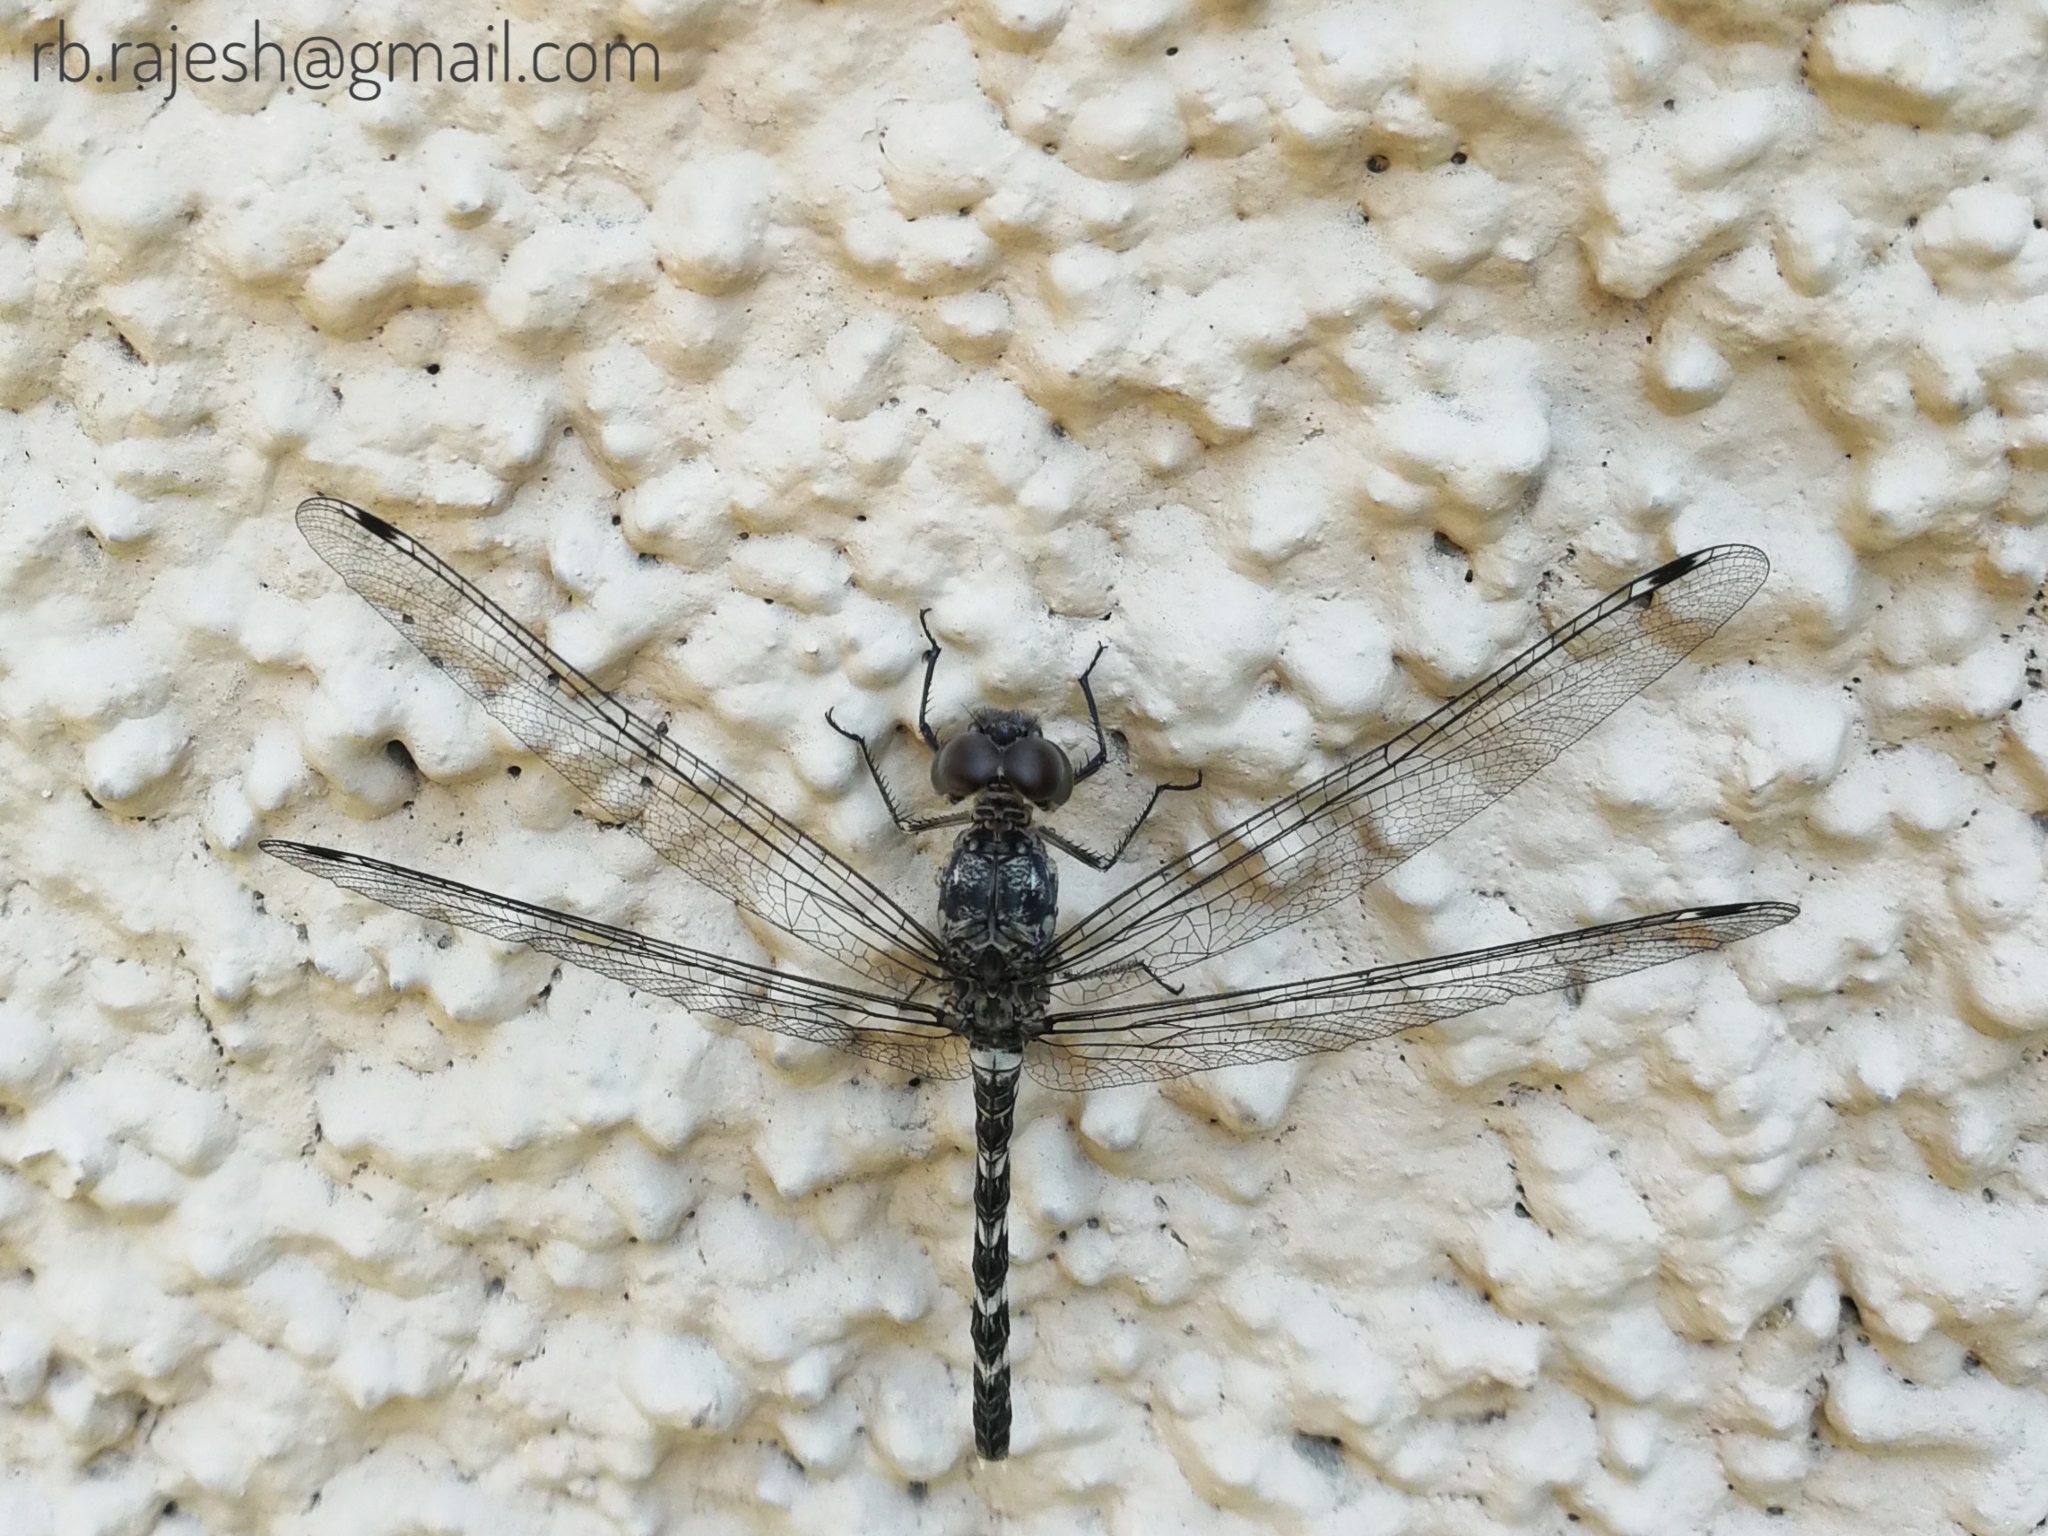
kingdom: Animalia
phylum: Arthropoda
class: Insecta
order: Odonata
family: Libellulidae
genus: Bradinopyga
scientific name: Bradinopyga geminata
